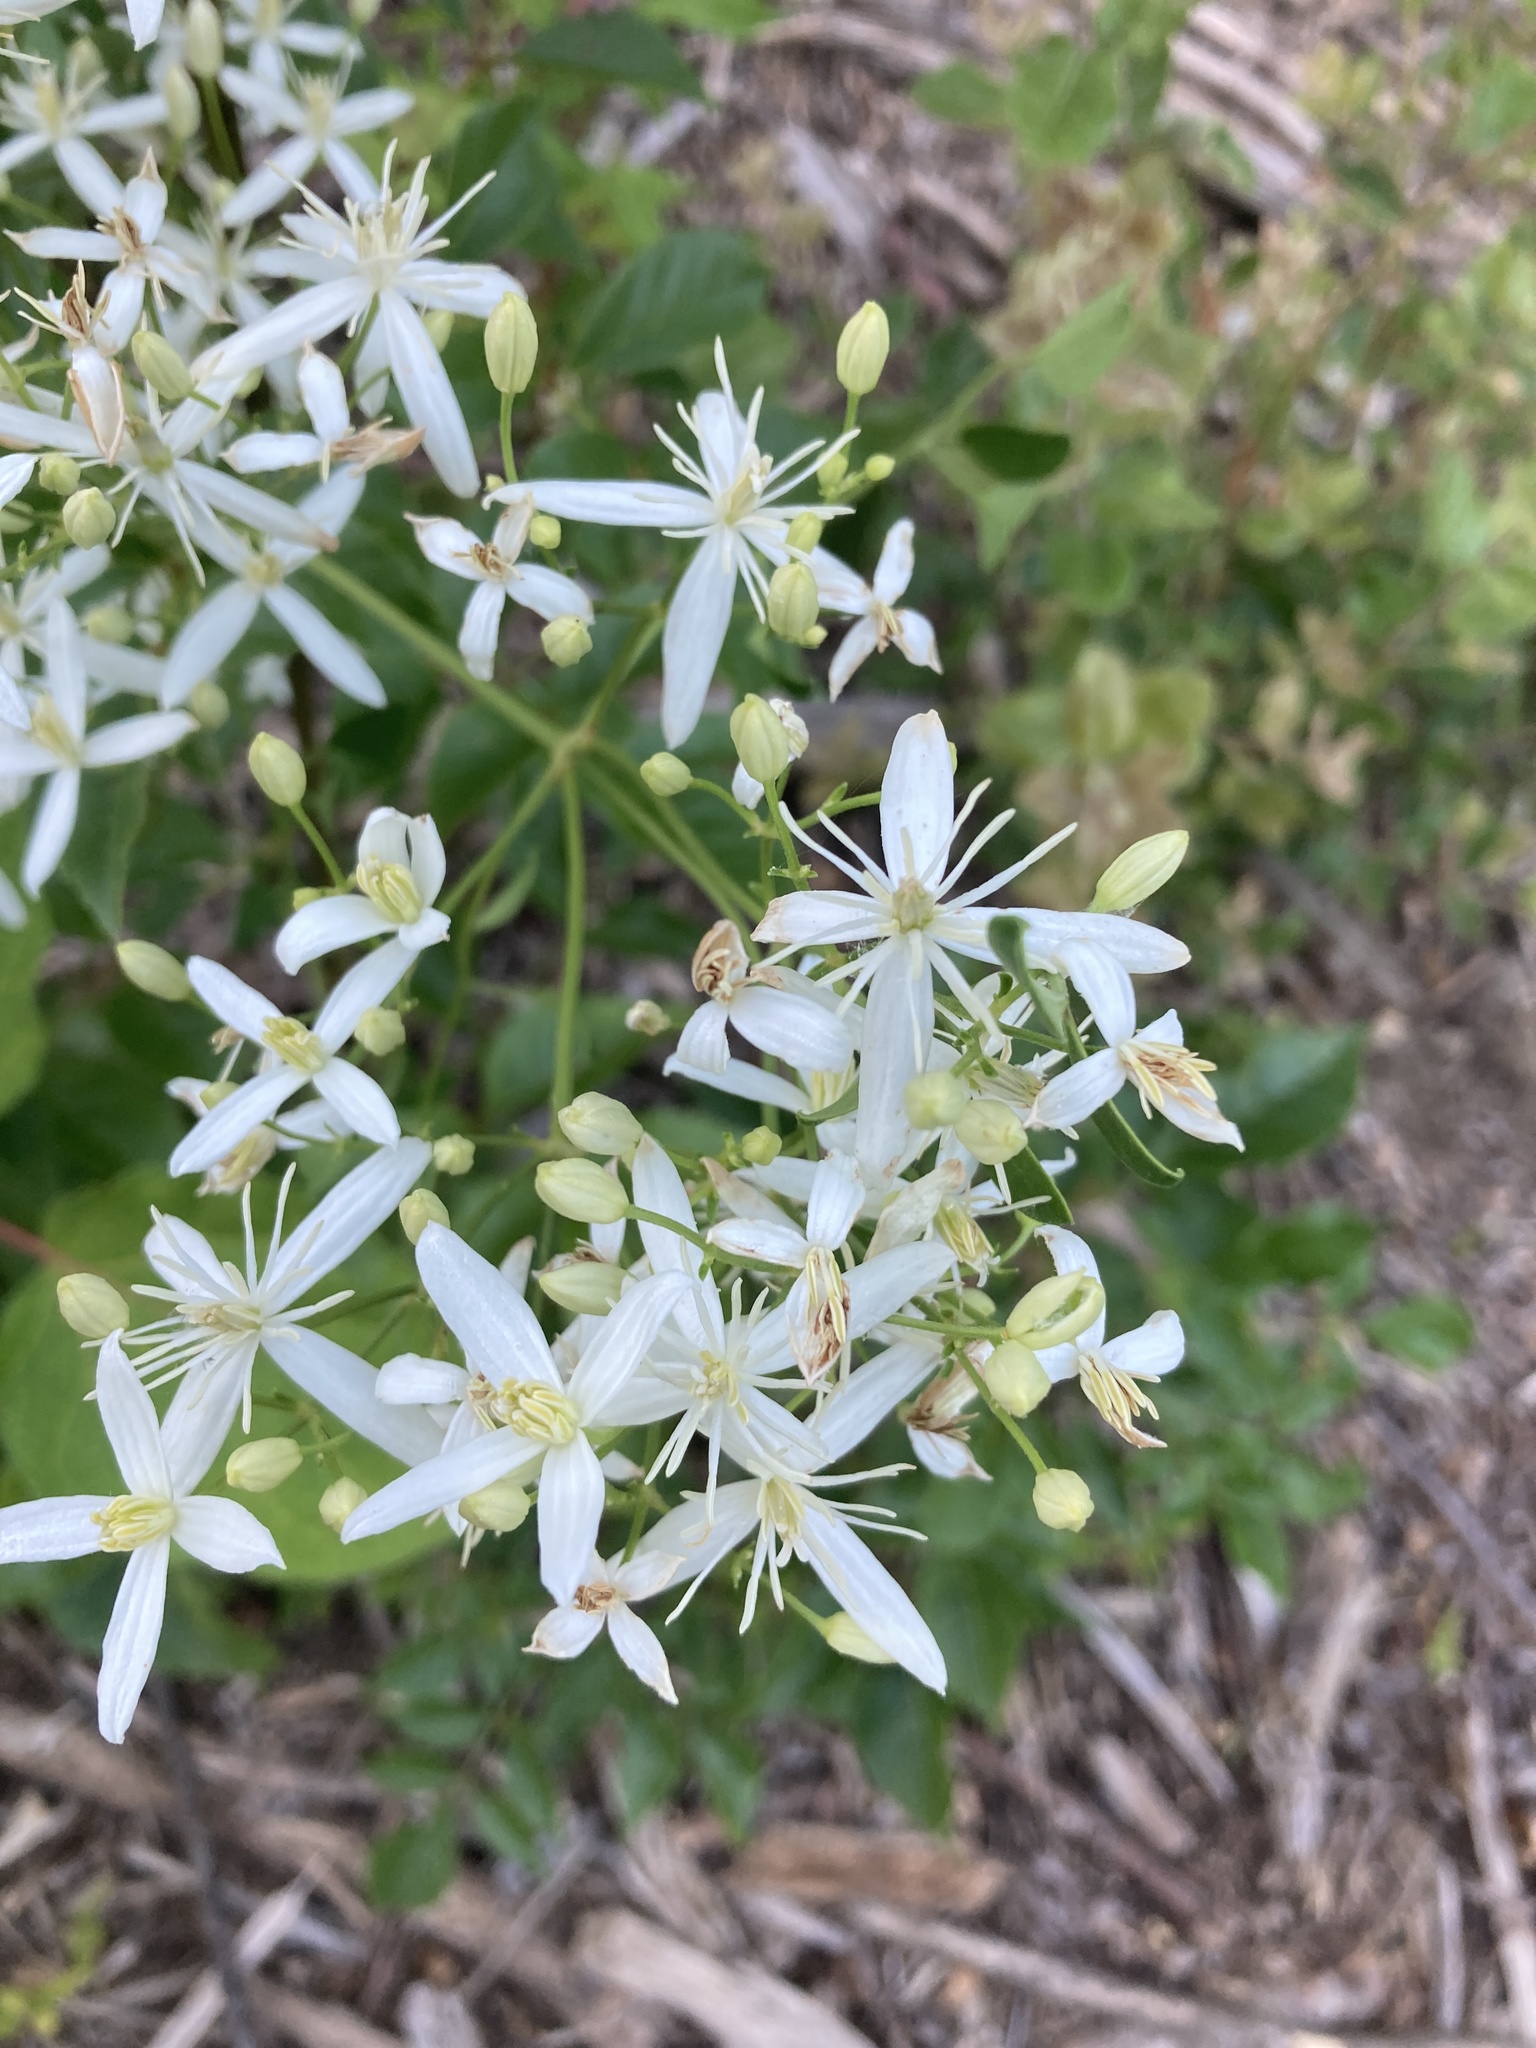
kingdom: Plantae
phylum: Tracheophyta
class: Magnoliopsida
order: Ranunculales
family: Ranunculaceae
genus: Clematis
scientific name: Clematis flammula
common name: Virgin's-bower
